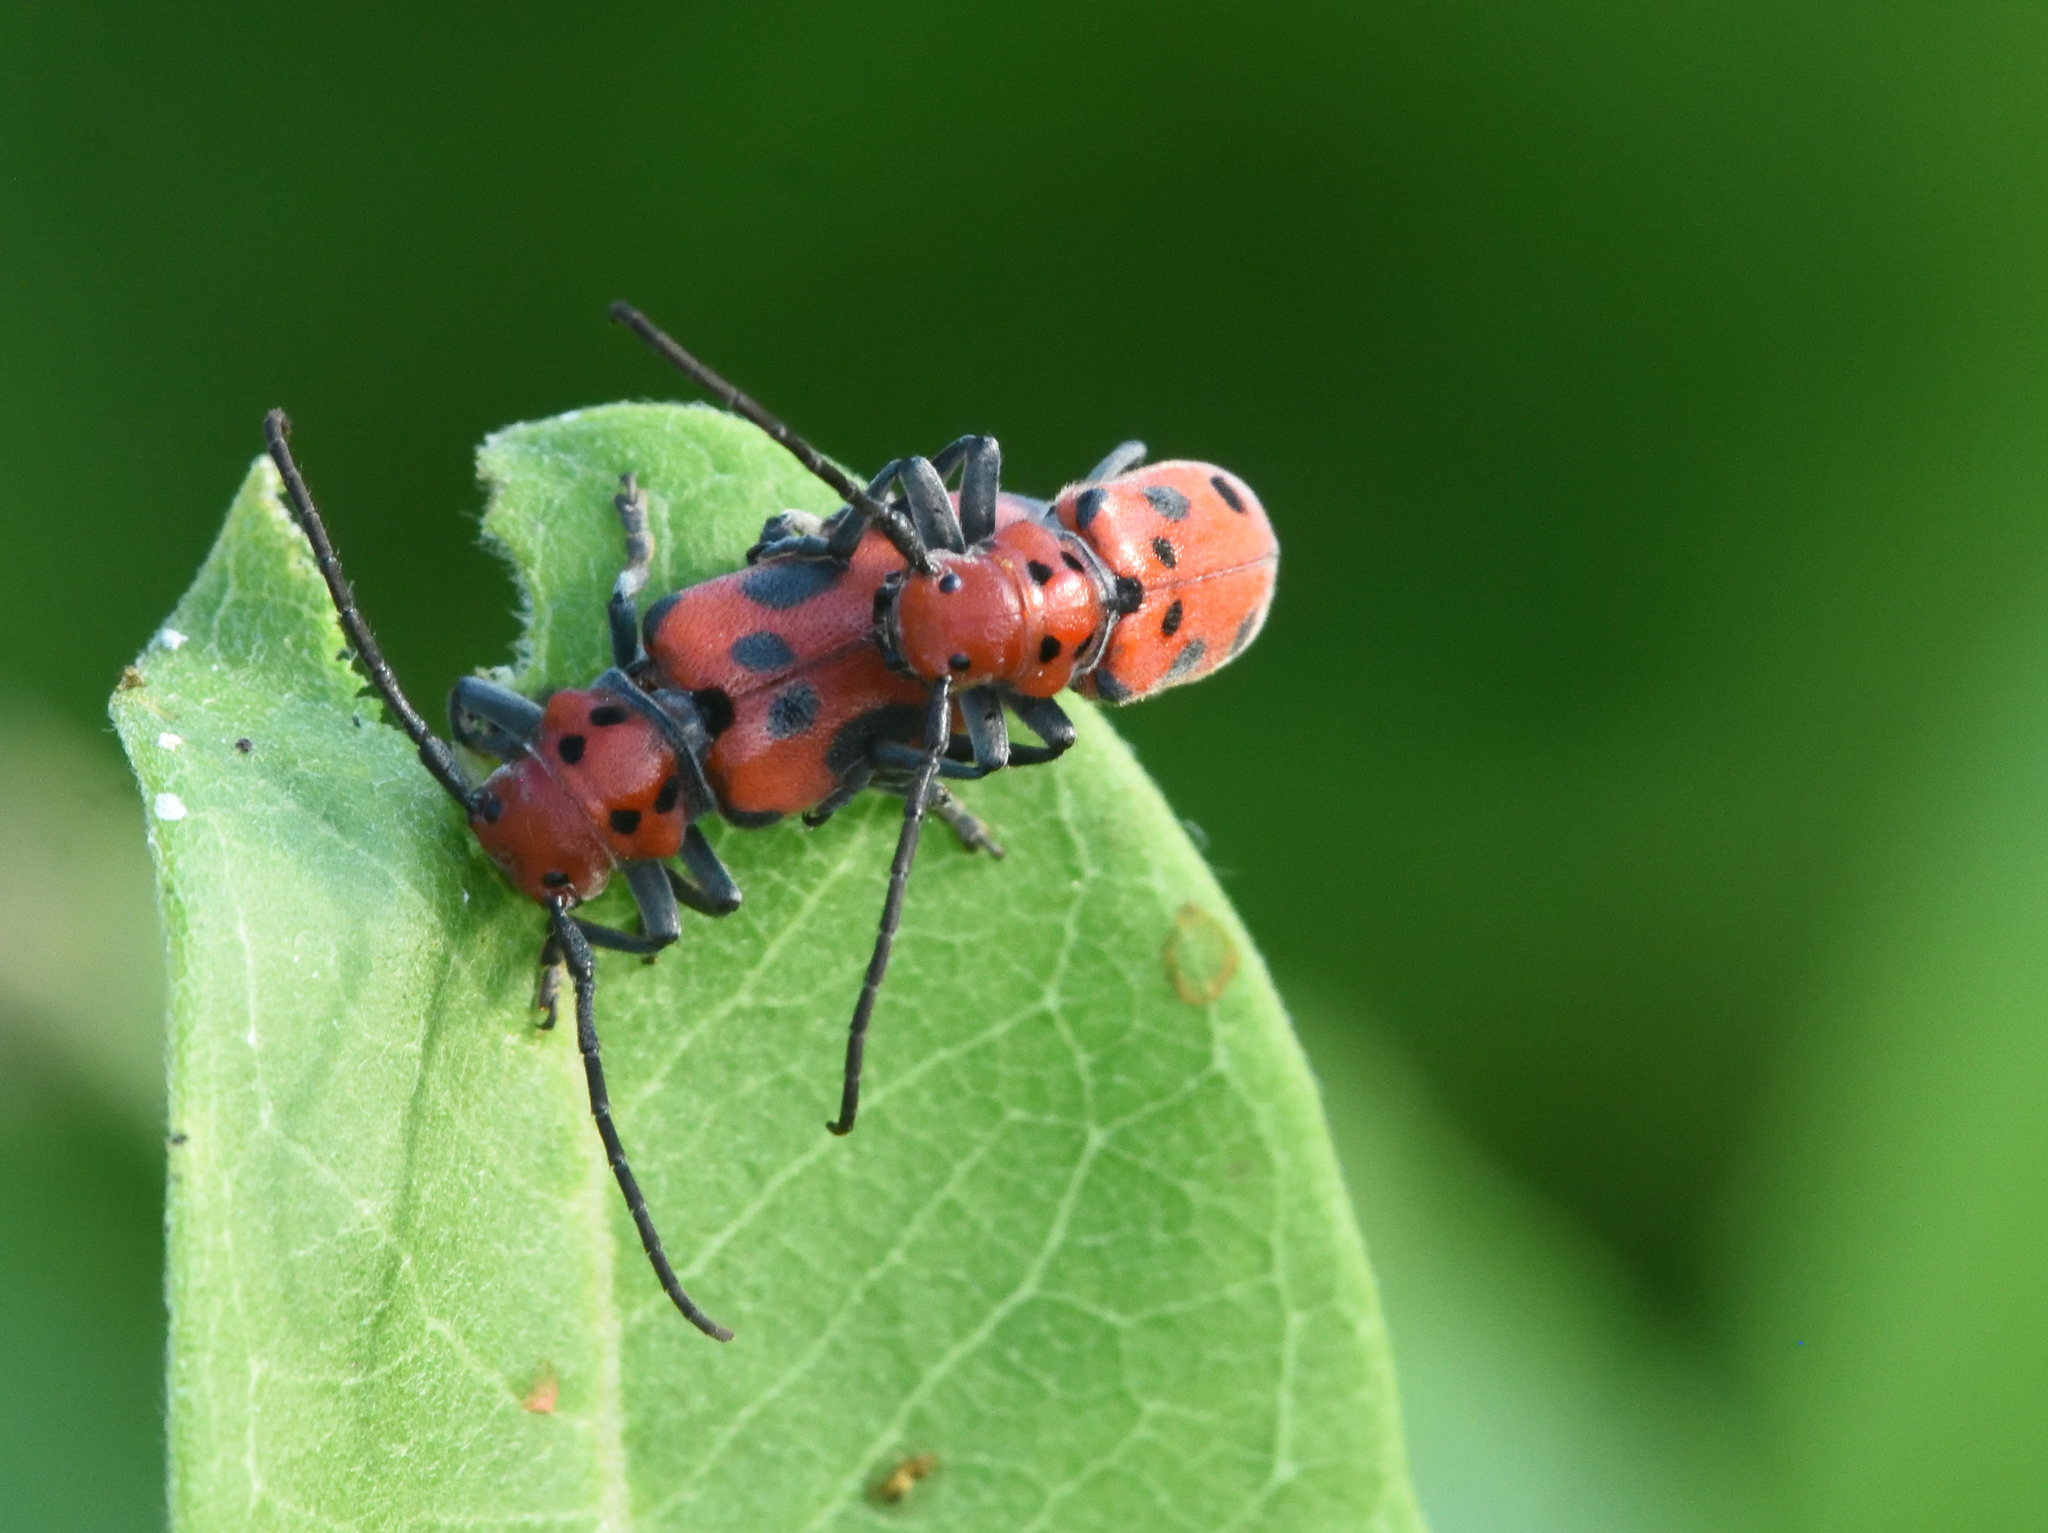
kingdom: Animalia
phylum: Arthropoda
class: Insecta
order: Coleoptera
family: Cerambycidae
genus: Tetraopes
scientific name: Tetraopes tetrophthalmus
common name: Red milkweed beetle
